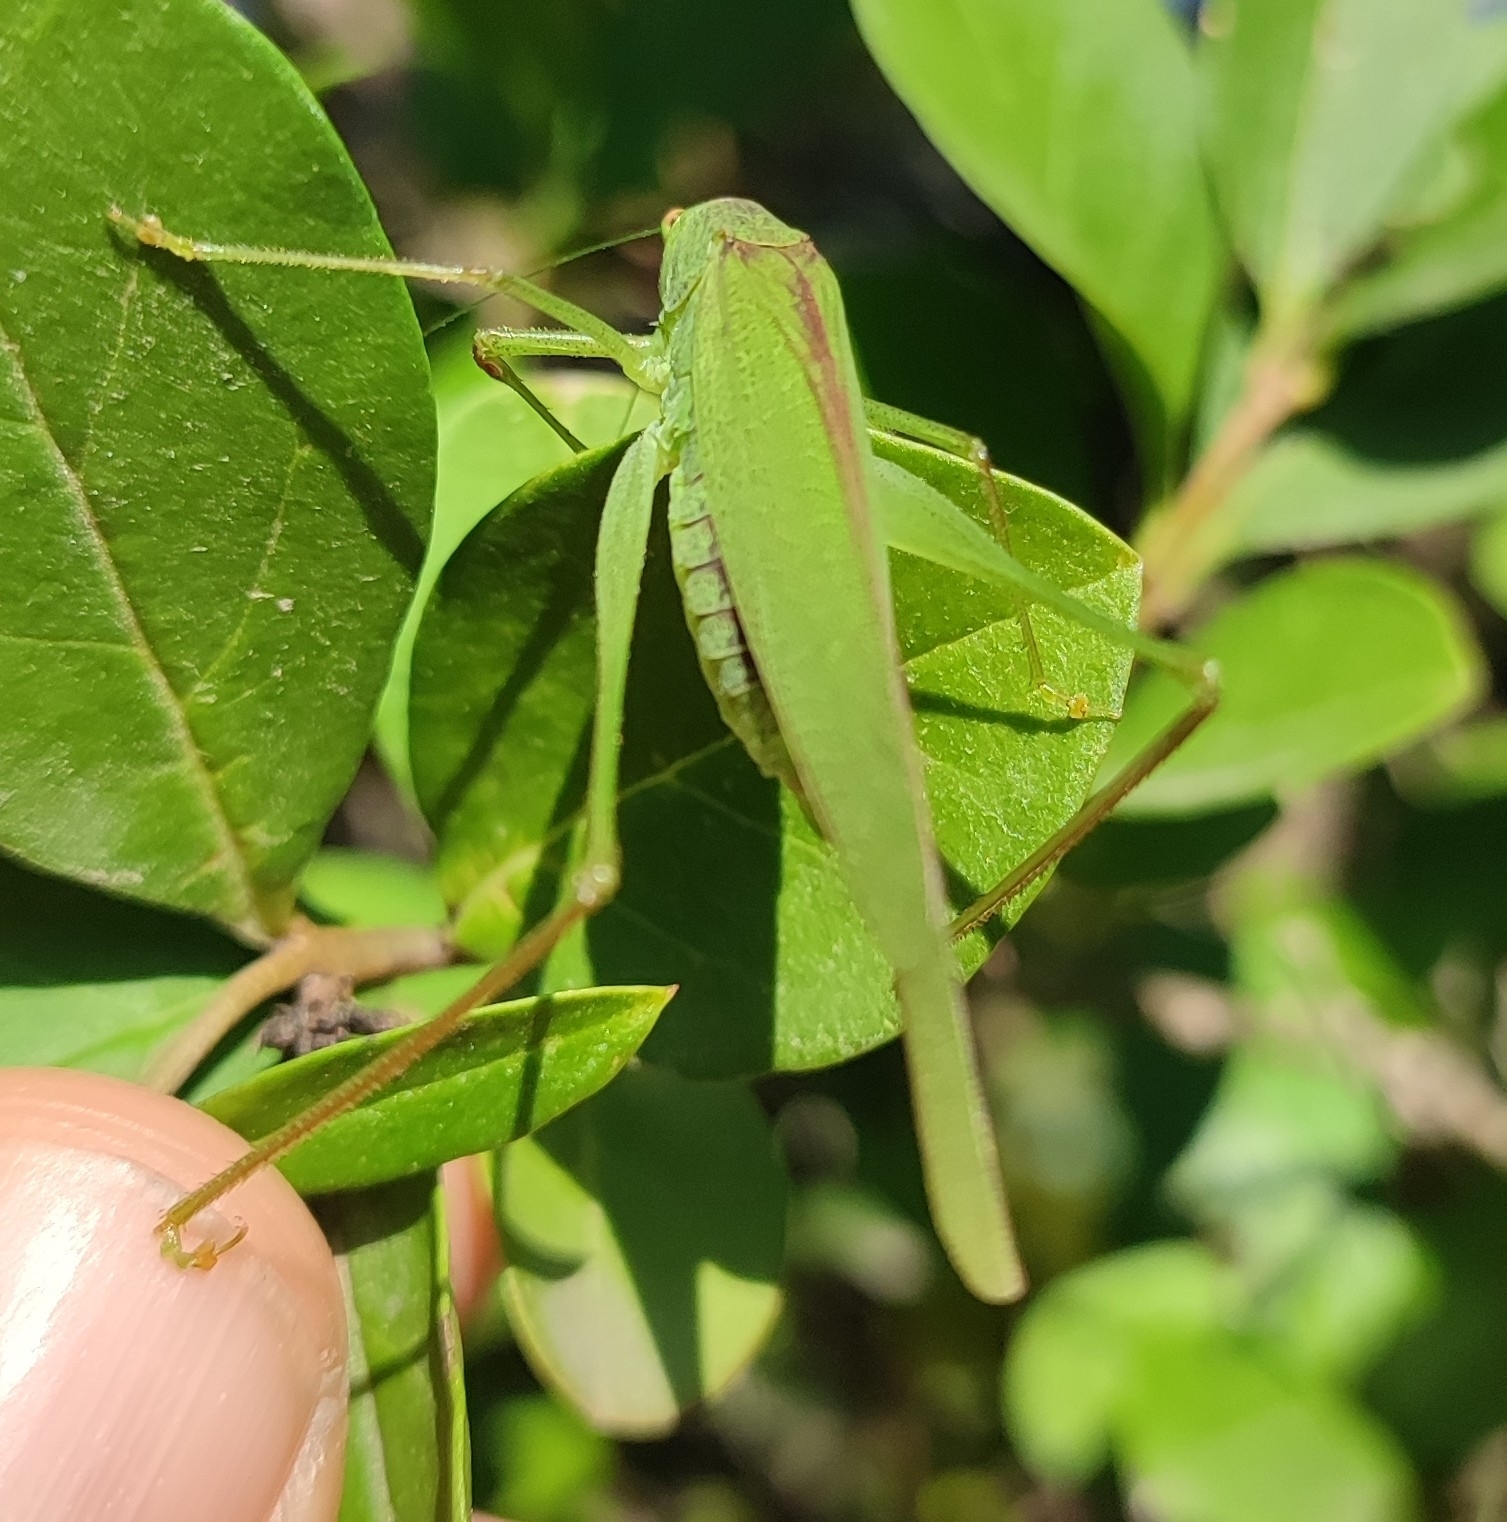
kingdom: Animalia
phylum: Arthropoda
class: Insecta
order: Orthoptera
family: Tettigoniidae
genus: Phaneroptera
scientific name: Phaneroptera nana
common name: Southern sickle bush-cricket
